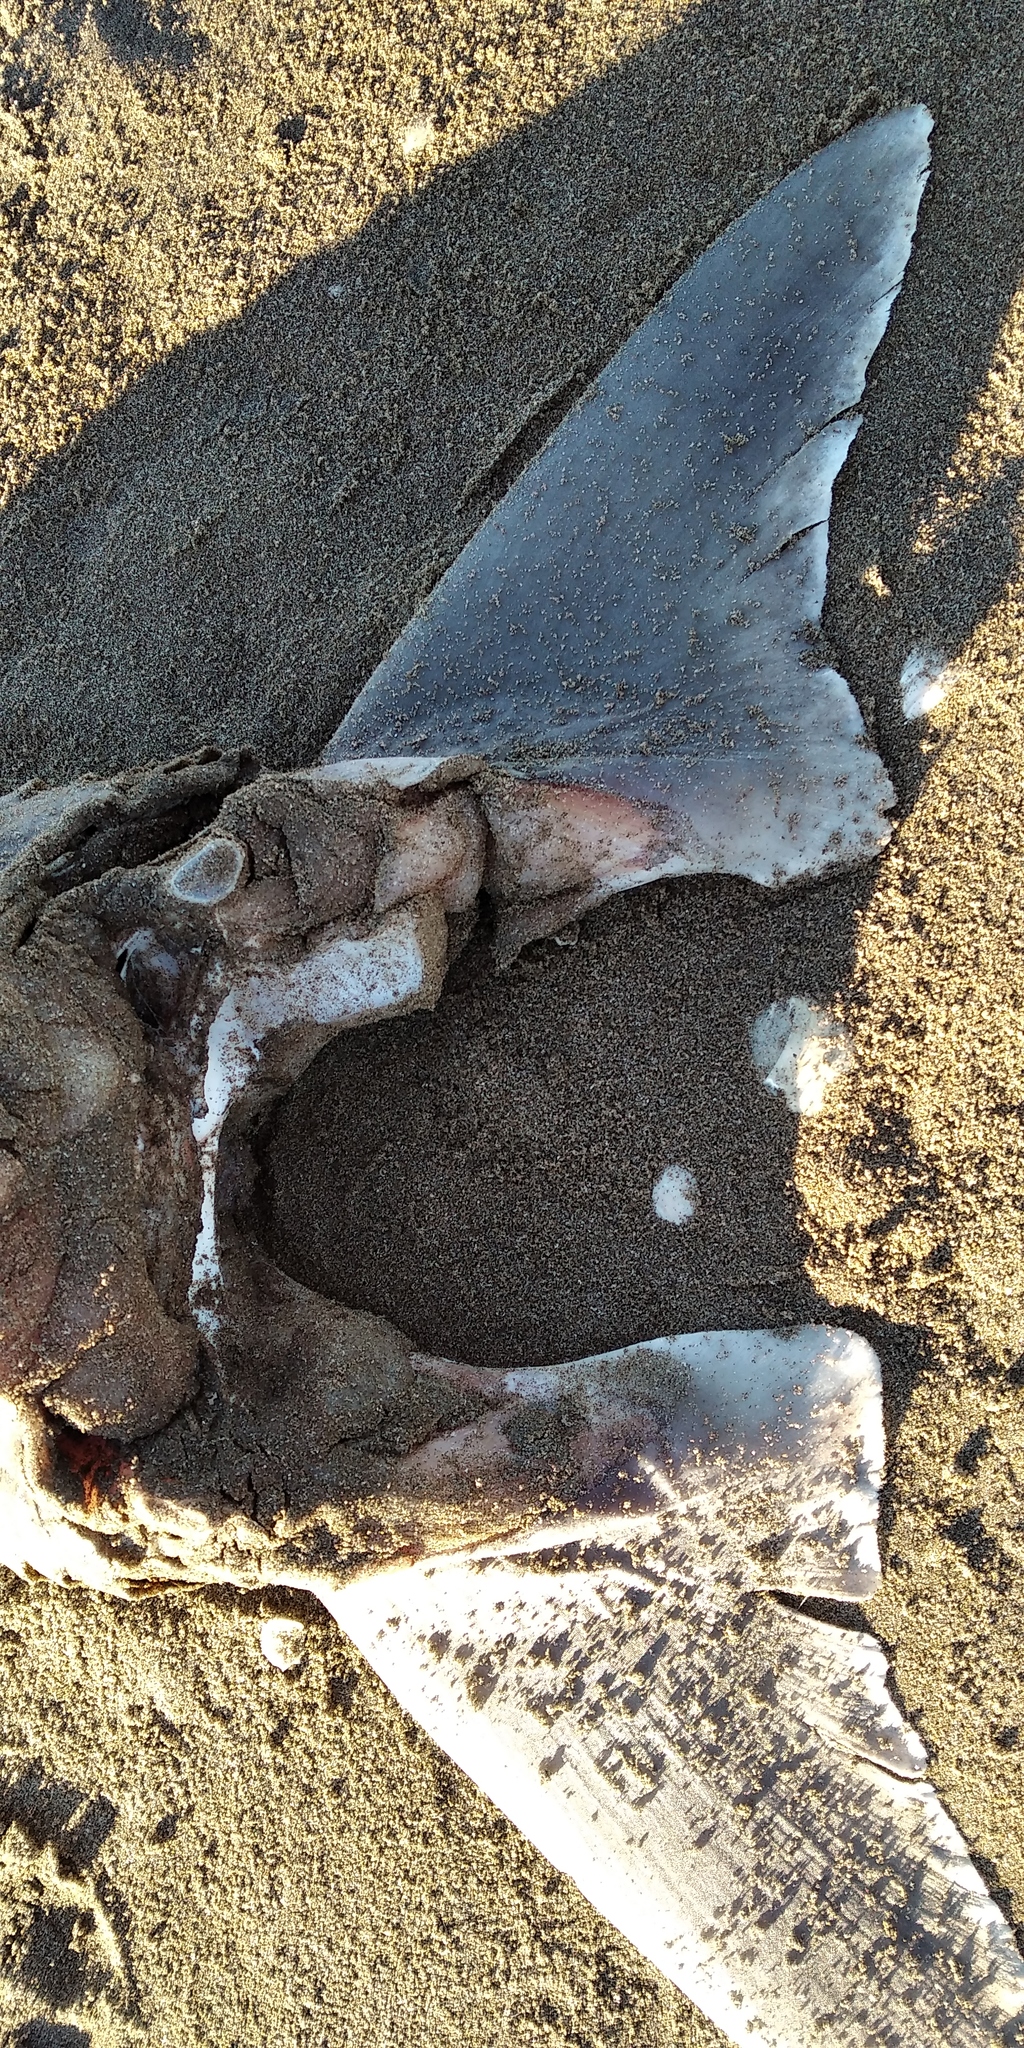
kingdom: Animalia
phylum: Chordata
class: Elasmobranchii
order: Carcharhiniformes
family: Triakidae
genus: Galeorhinus
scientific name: Galeorhinus galeus
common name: Tope
